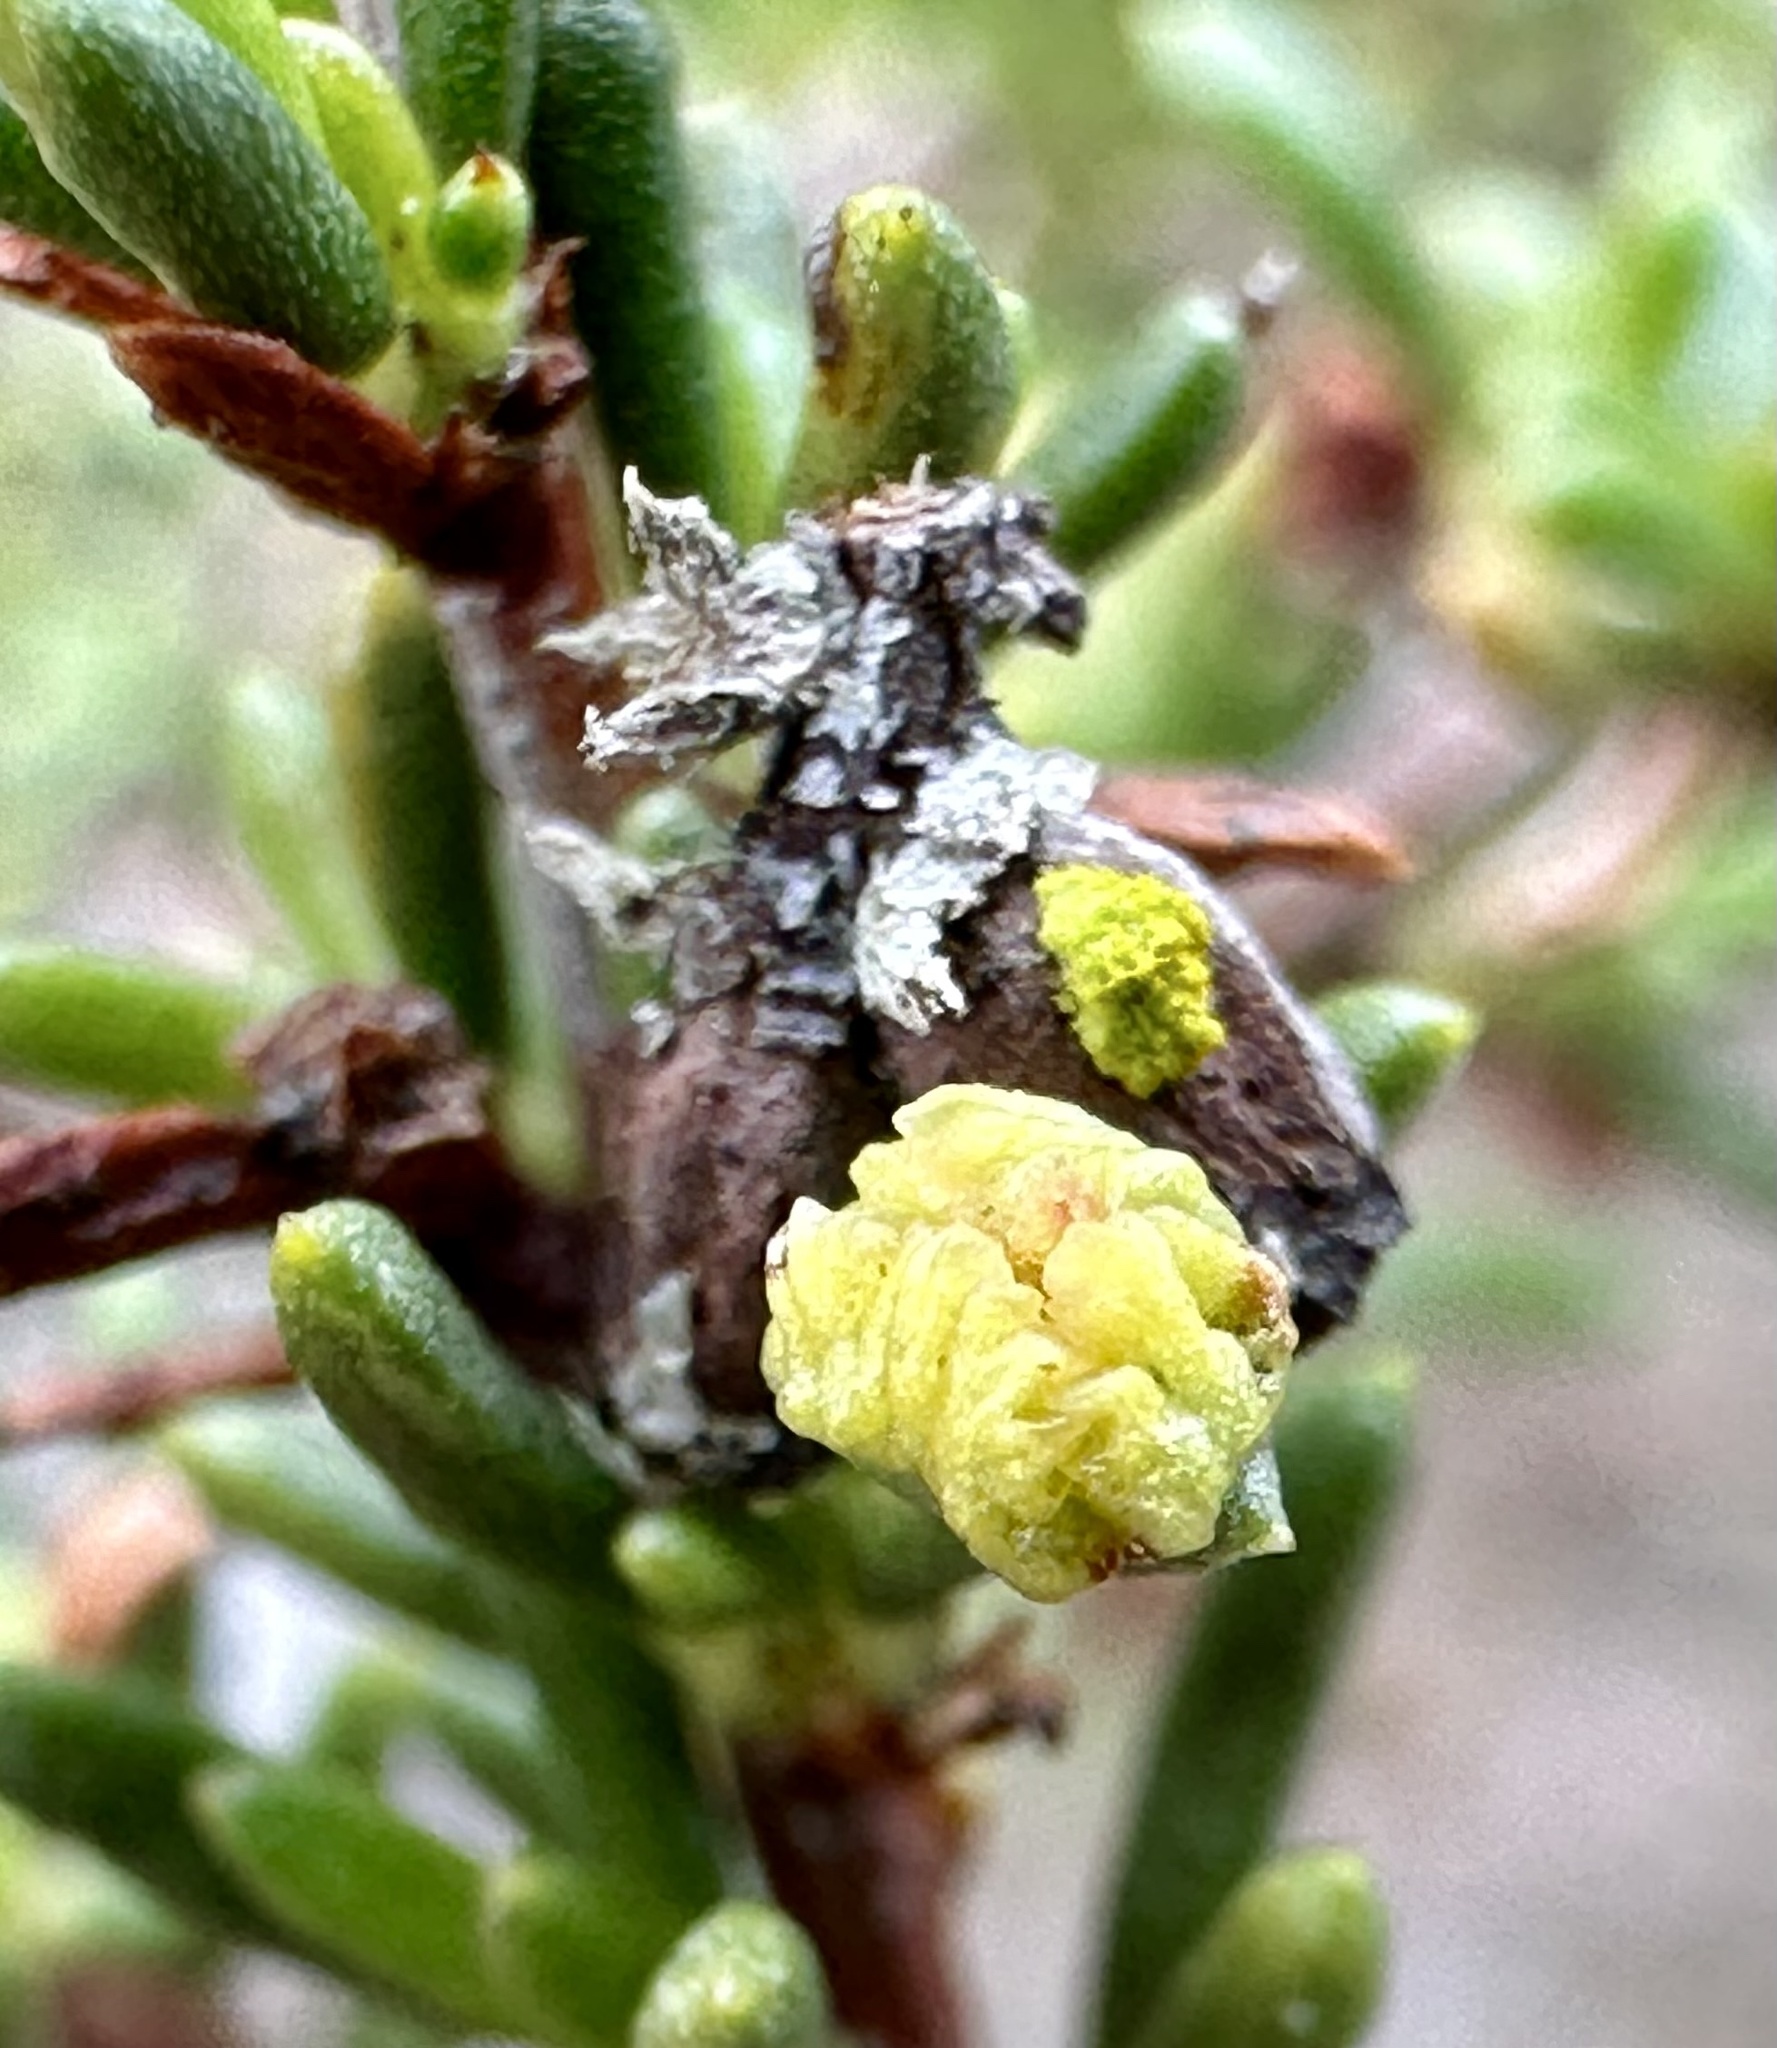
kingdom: Animalia
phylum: Arthropoda
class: Arachnida
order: Trombidiformes
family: Eriophyidae
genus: Eriophyes
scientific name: Eriophyes
